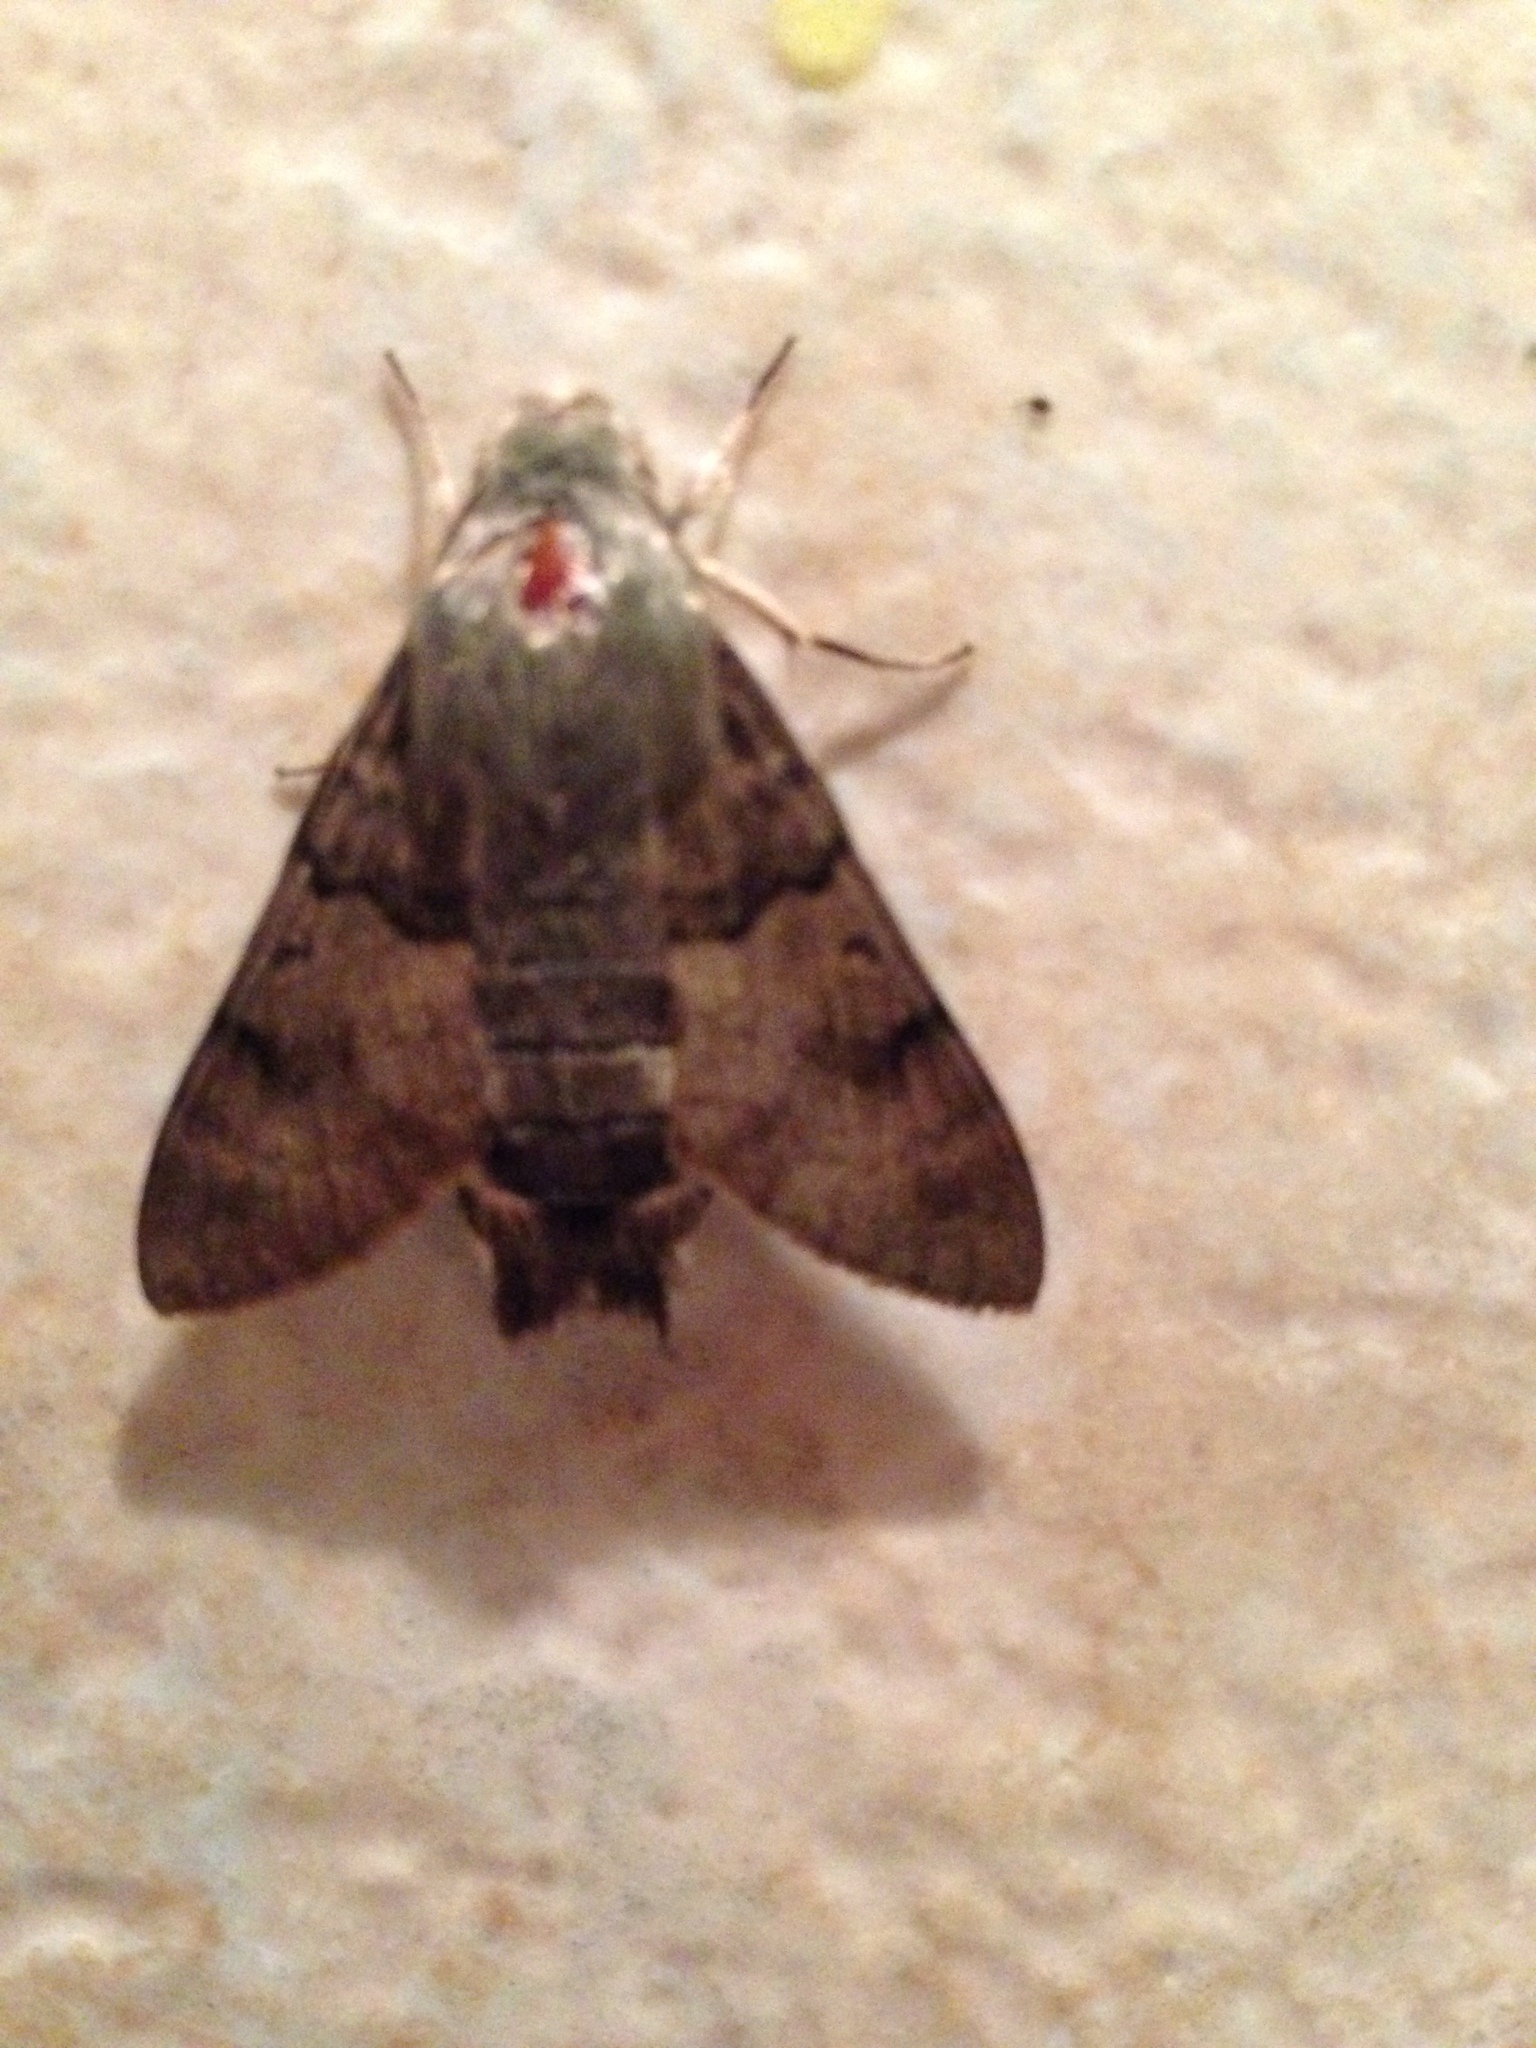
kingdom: Animalia
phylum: Arthropoda
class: Insecta
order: Lepidoptera
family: Sphingidae
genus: Macroglossum
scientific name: Macroglossum stellatarum
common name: Humming-bird hawk-moth
